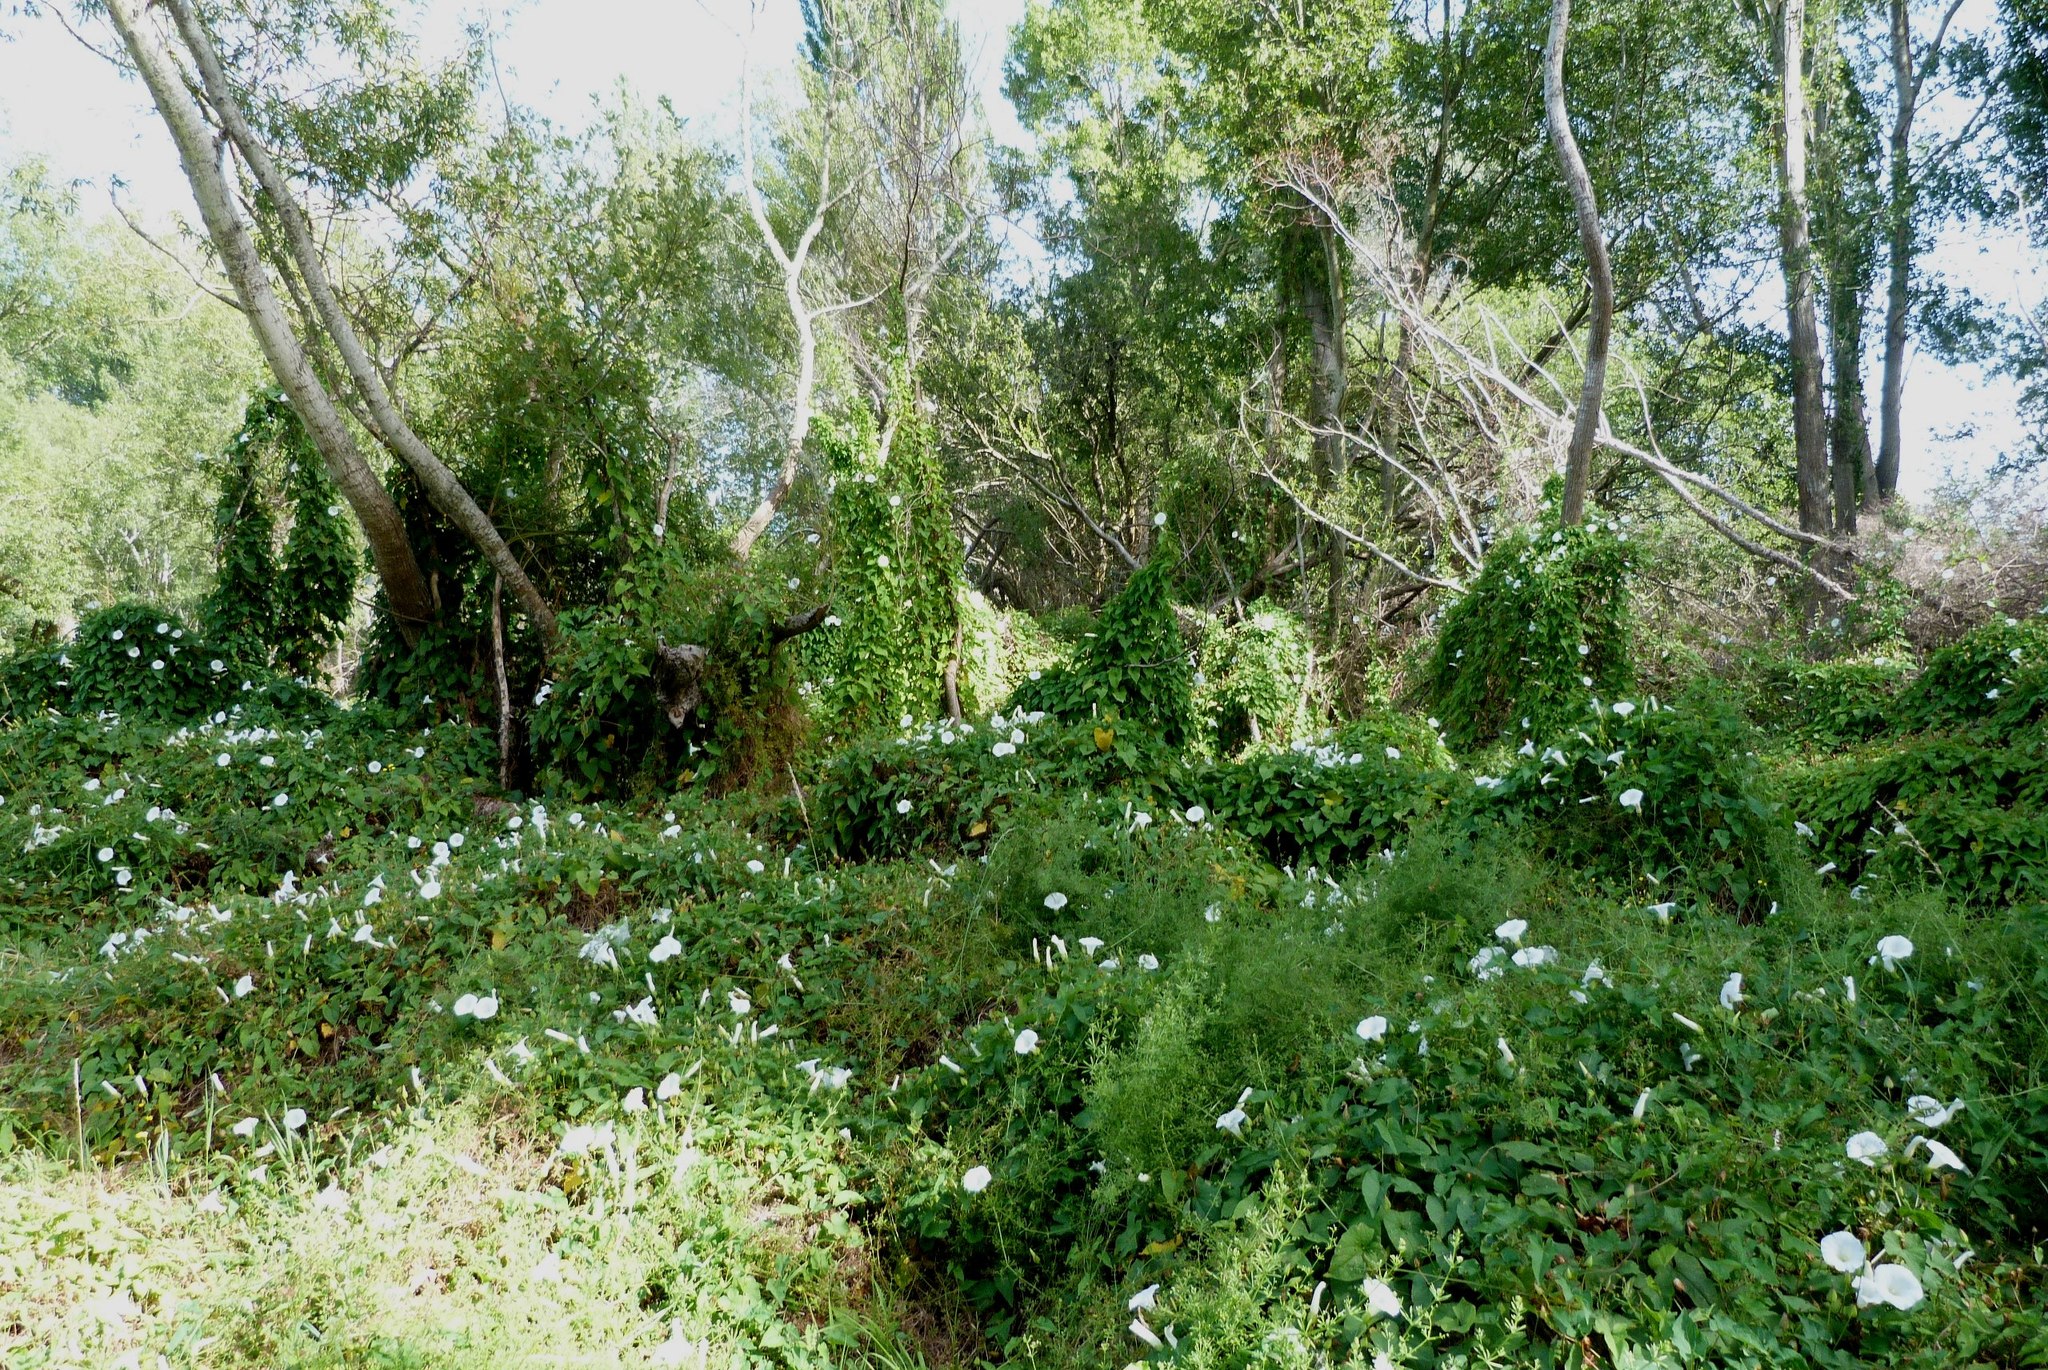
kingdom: Plantae
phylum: Tracheophyta
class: Magnoliopsida
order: Solanales
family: Convolvulaceae
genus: Calystegia
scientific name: Calystegia silvatica
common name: Large bindweed
